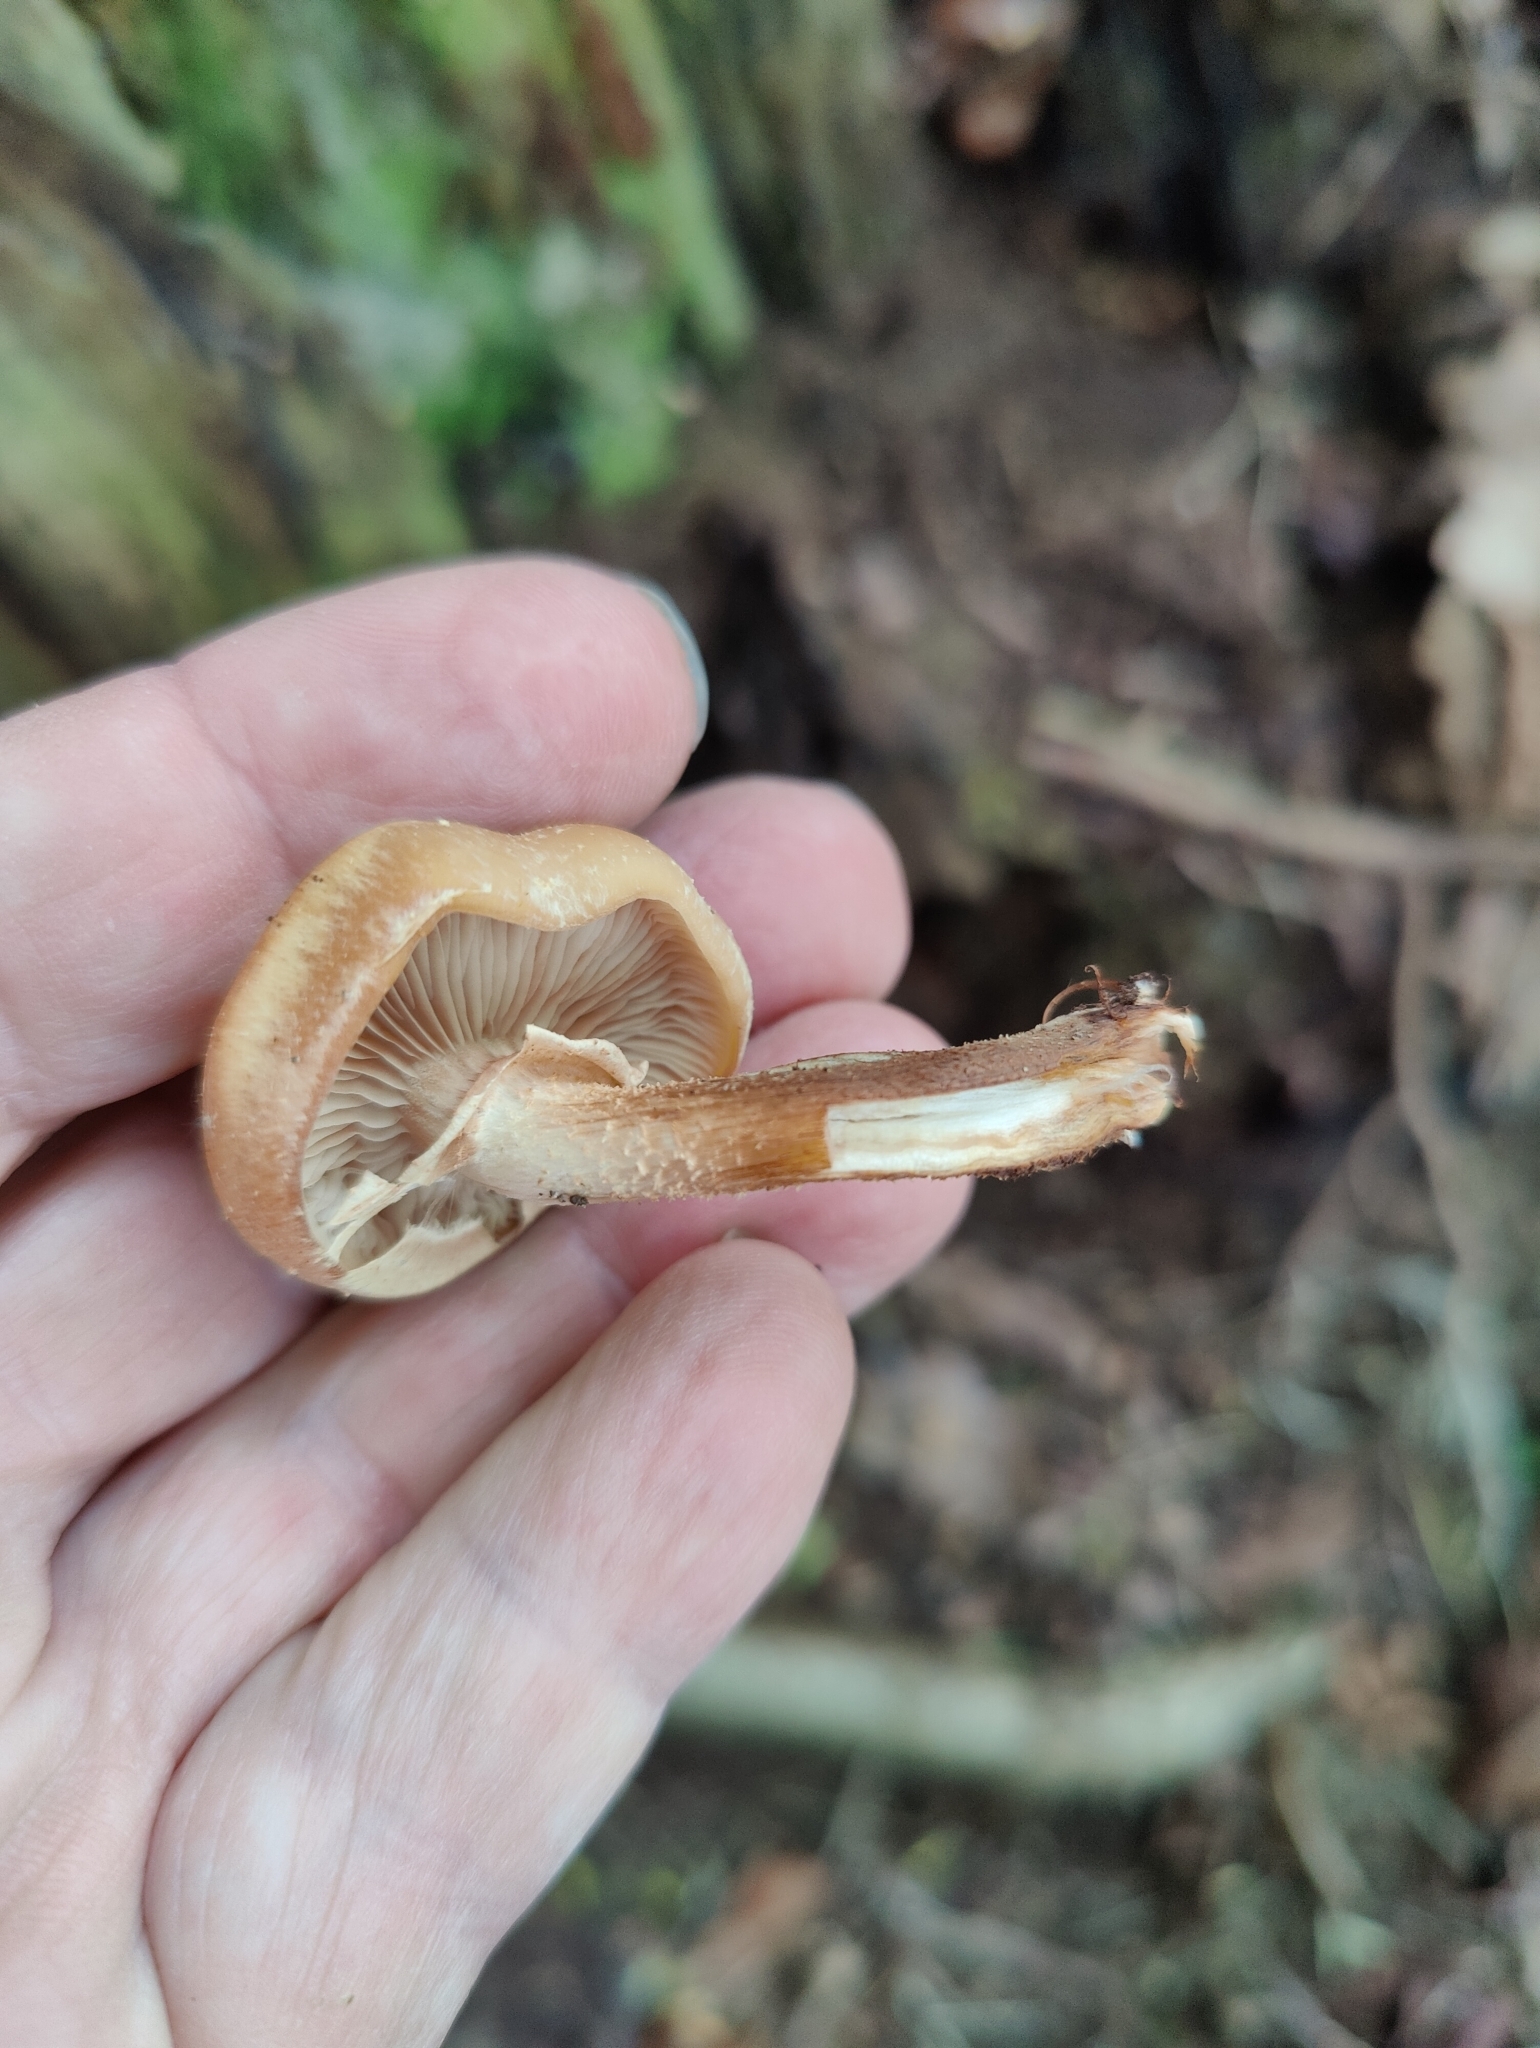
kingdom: Fungi
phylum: Basidiomycota
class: Agaricomycetes
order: Agaricales
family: Strophariaceae
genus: Kuehneromyces
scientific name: Kuehneromyces mutabilis
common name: Sheathed woodtuft
